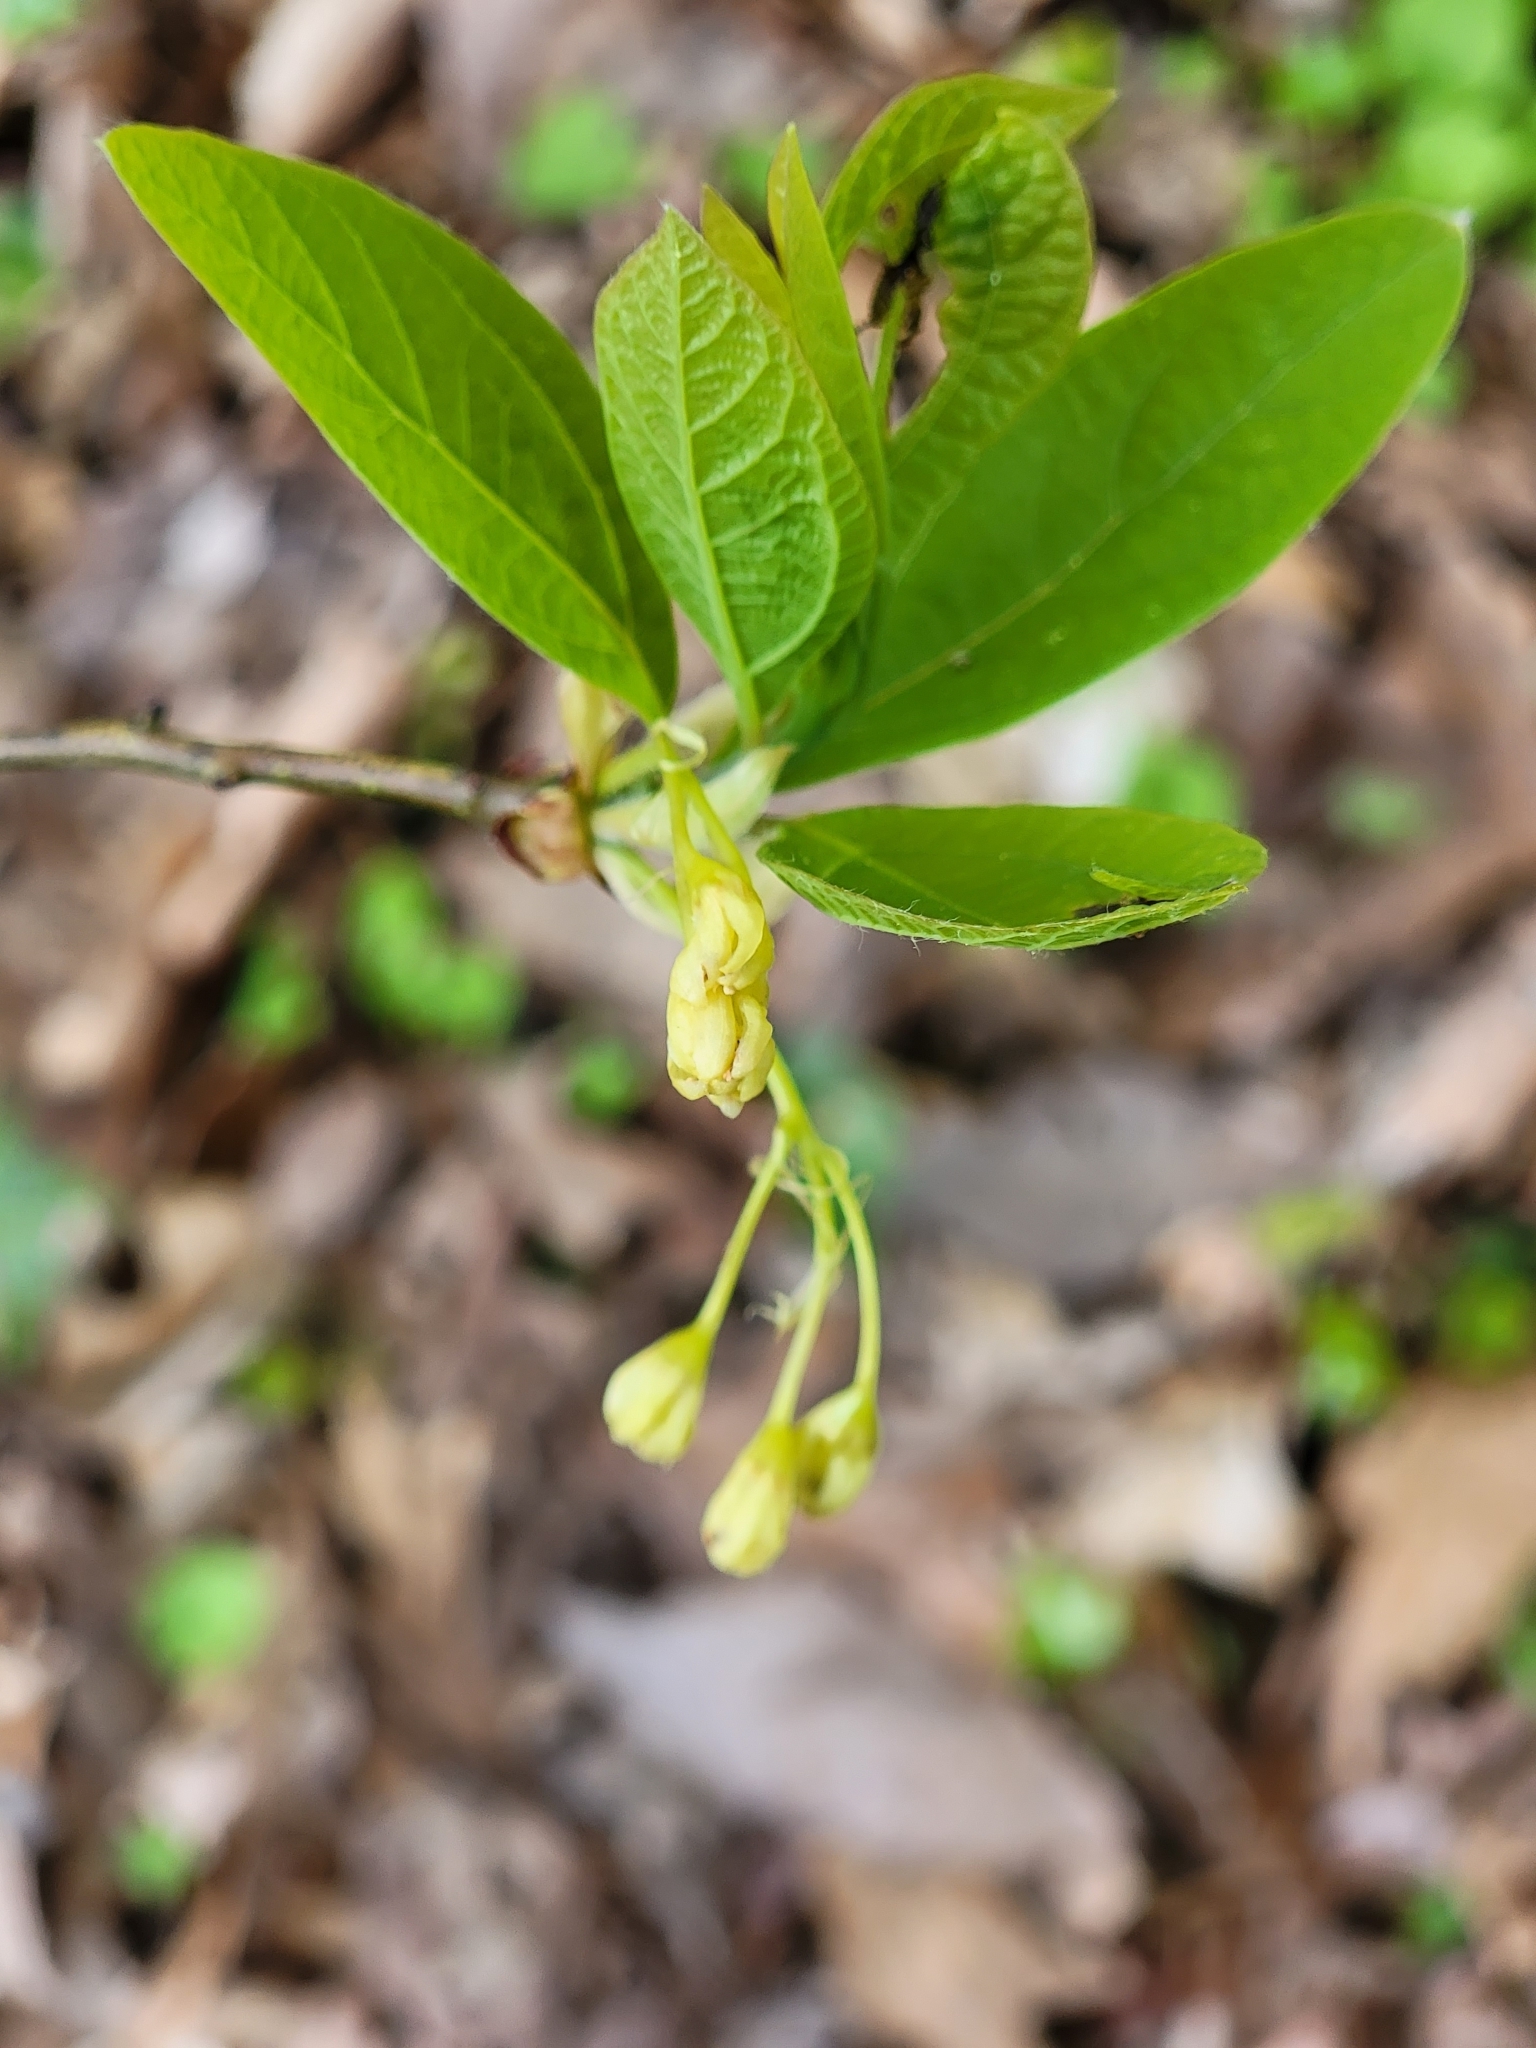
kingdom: Plantae
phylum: Tracheophyta
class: Magnoliopsida
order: Laurales
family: Lauraceae
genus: Sassafras
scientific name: Sassafras albidum
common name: Sassafras
